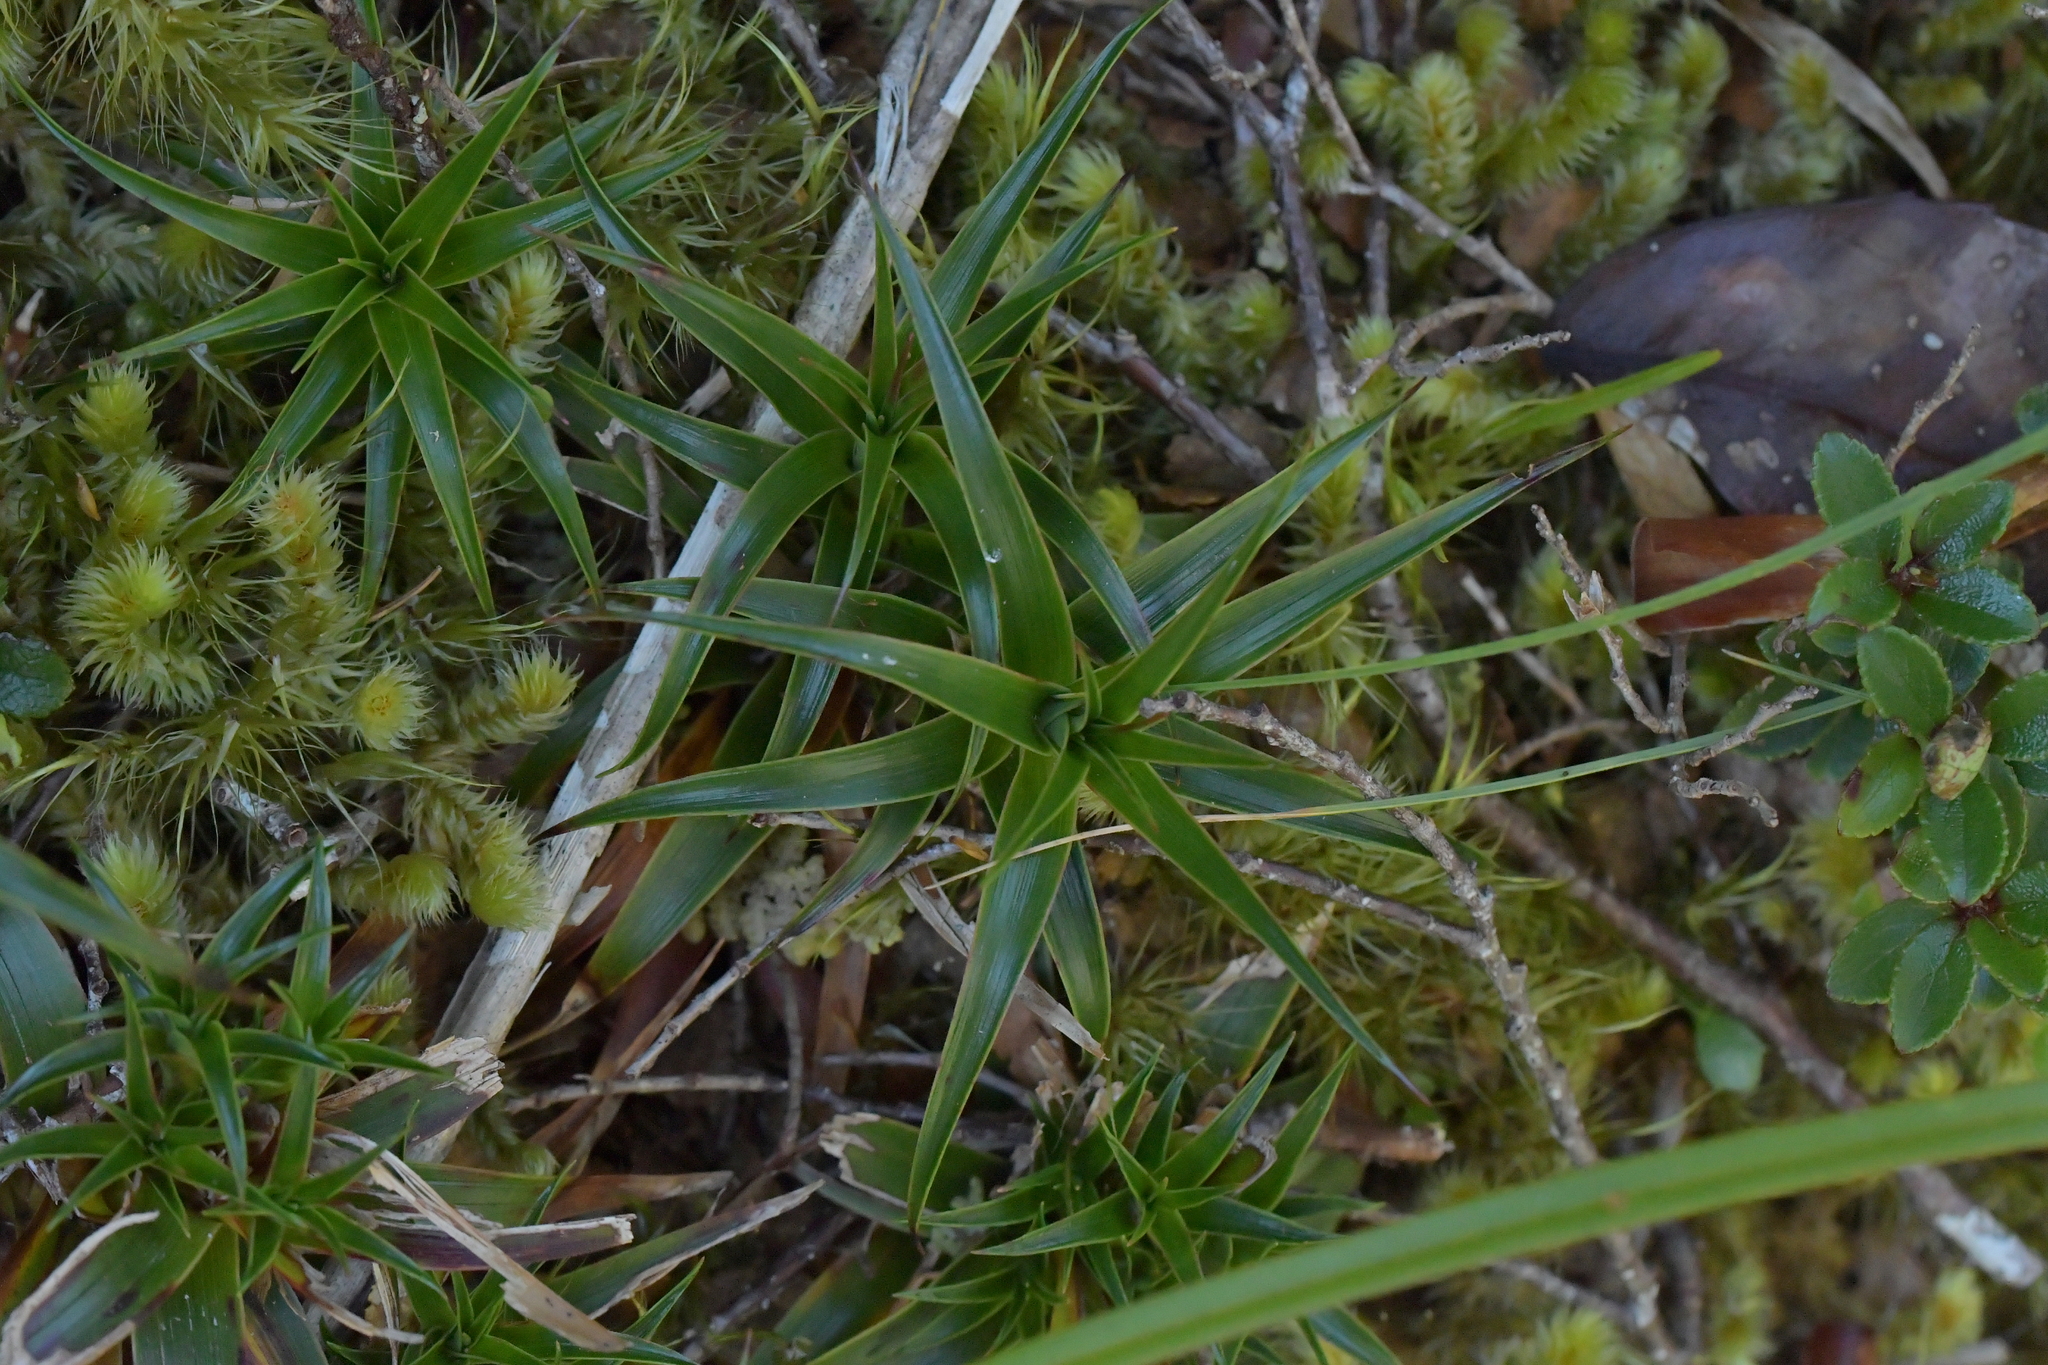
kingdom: Plantae
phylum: Tracheophyta
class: Magnoliopsida
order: Ericales
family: Ericaceae
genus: Dracophyllum
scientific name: Dracophyllum menziesii
